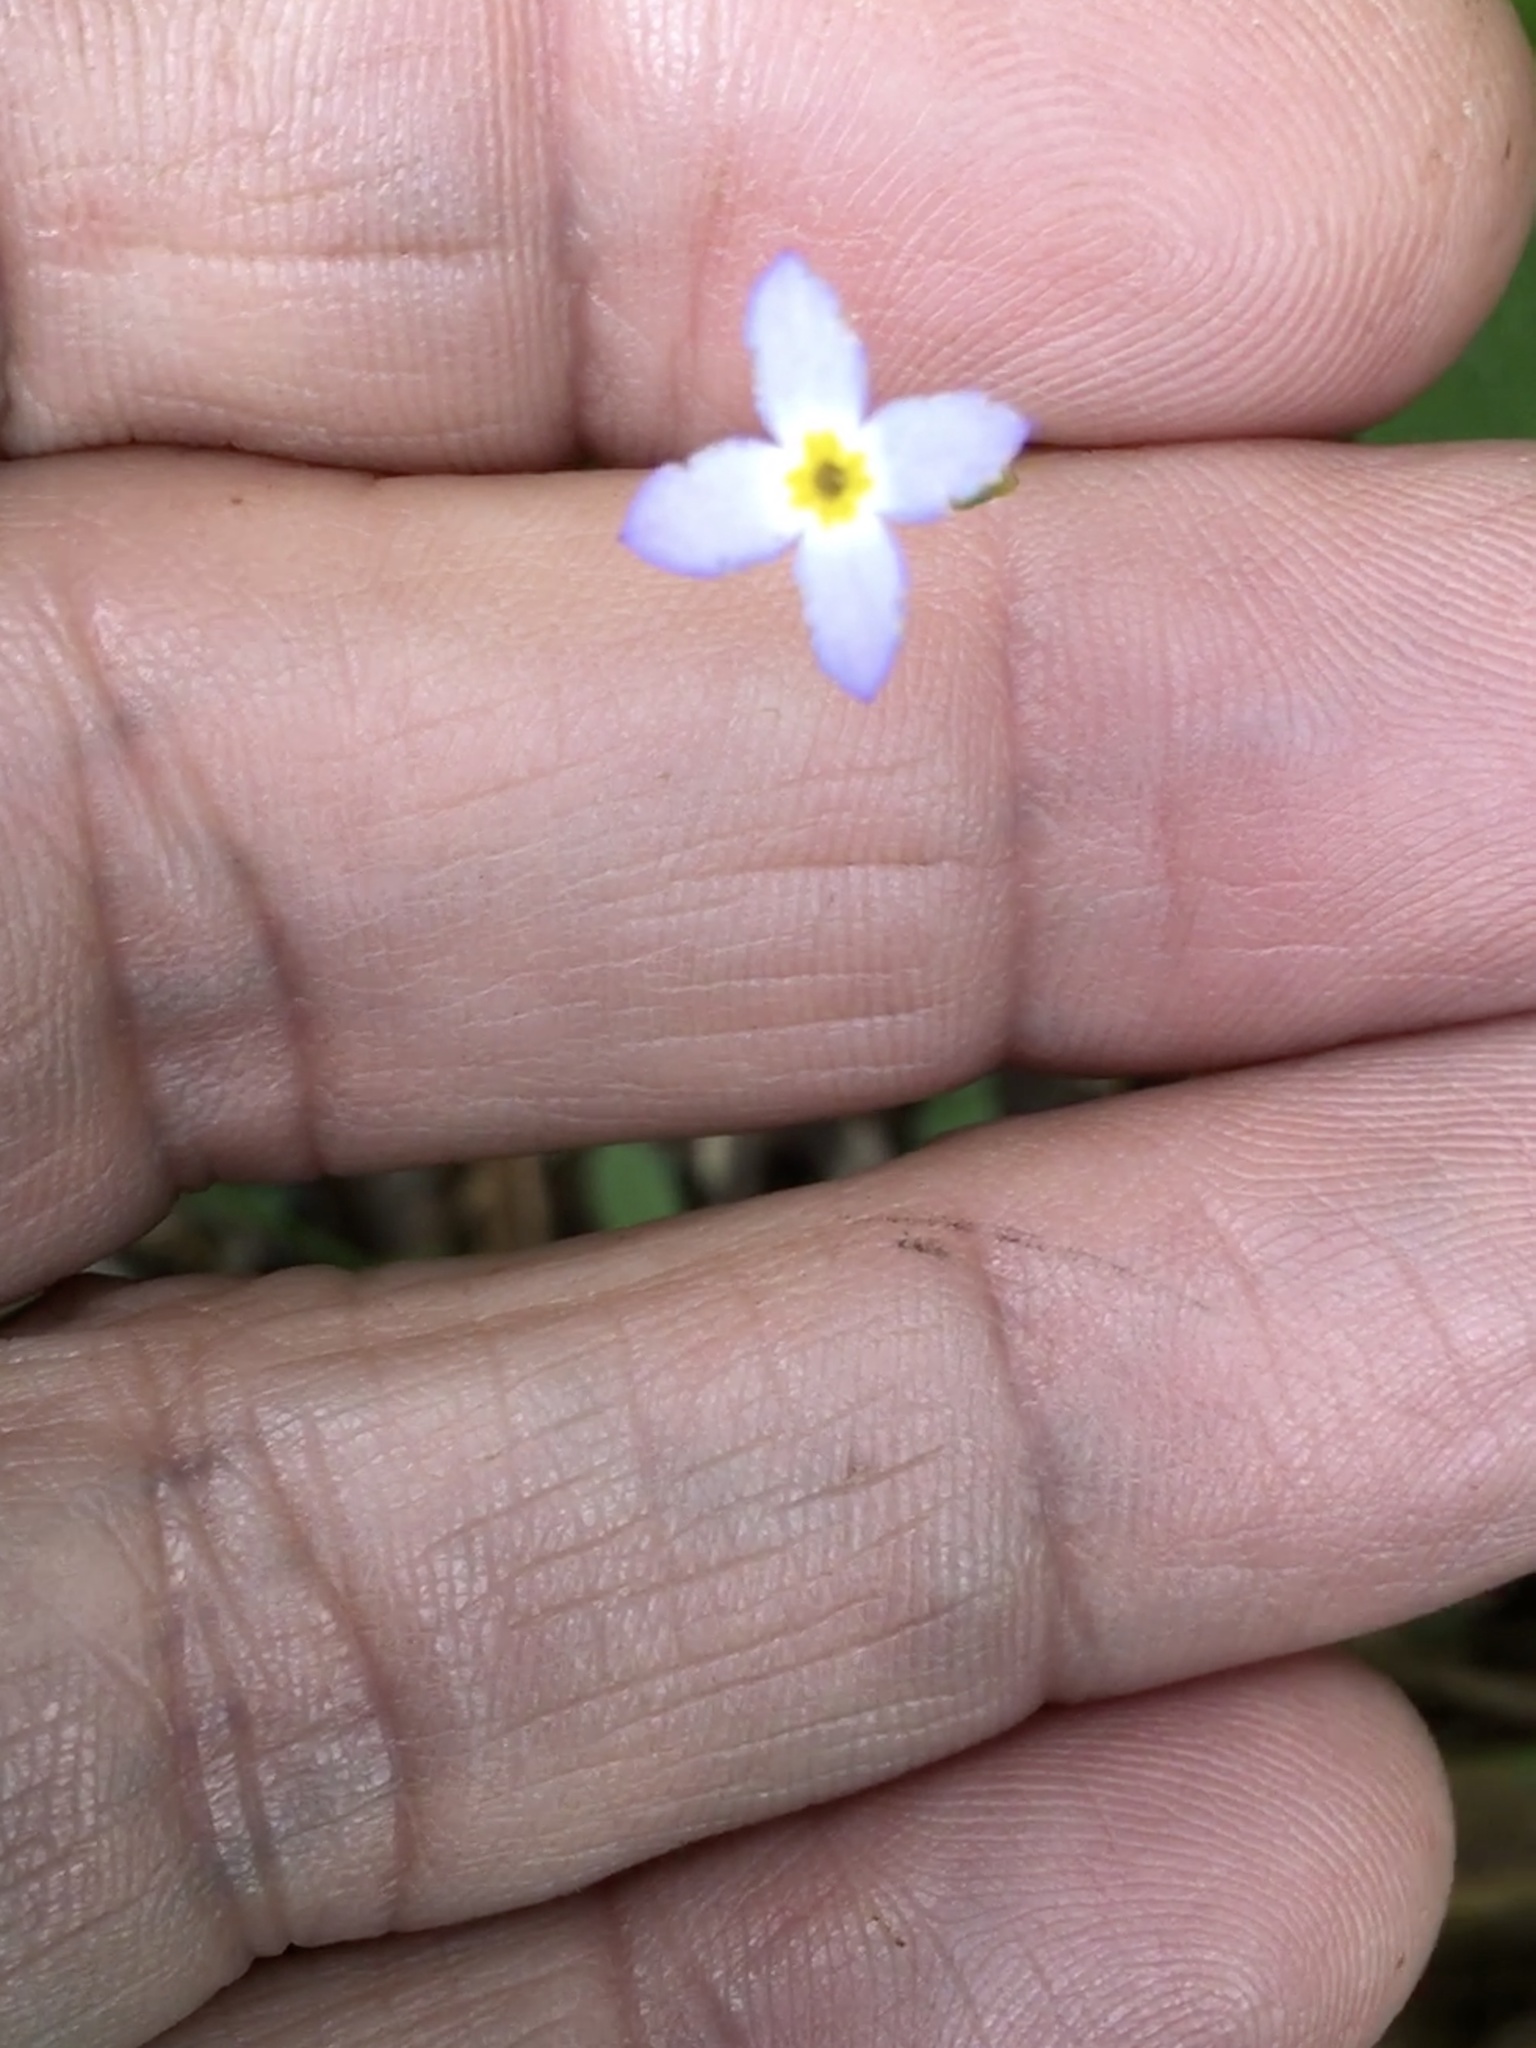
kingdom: Plantae
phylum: Tracheophyta
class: Magnoliopsida
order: Gentianales
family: Rubiaceae
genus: Houstonia
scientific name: Houstonia caerulea
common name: Bluets
